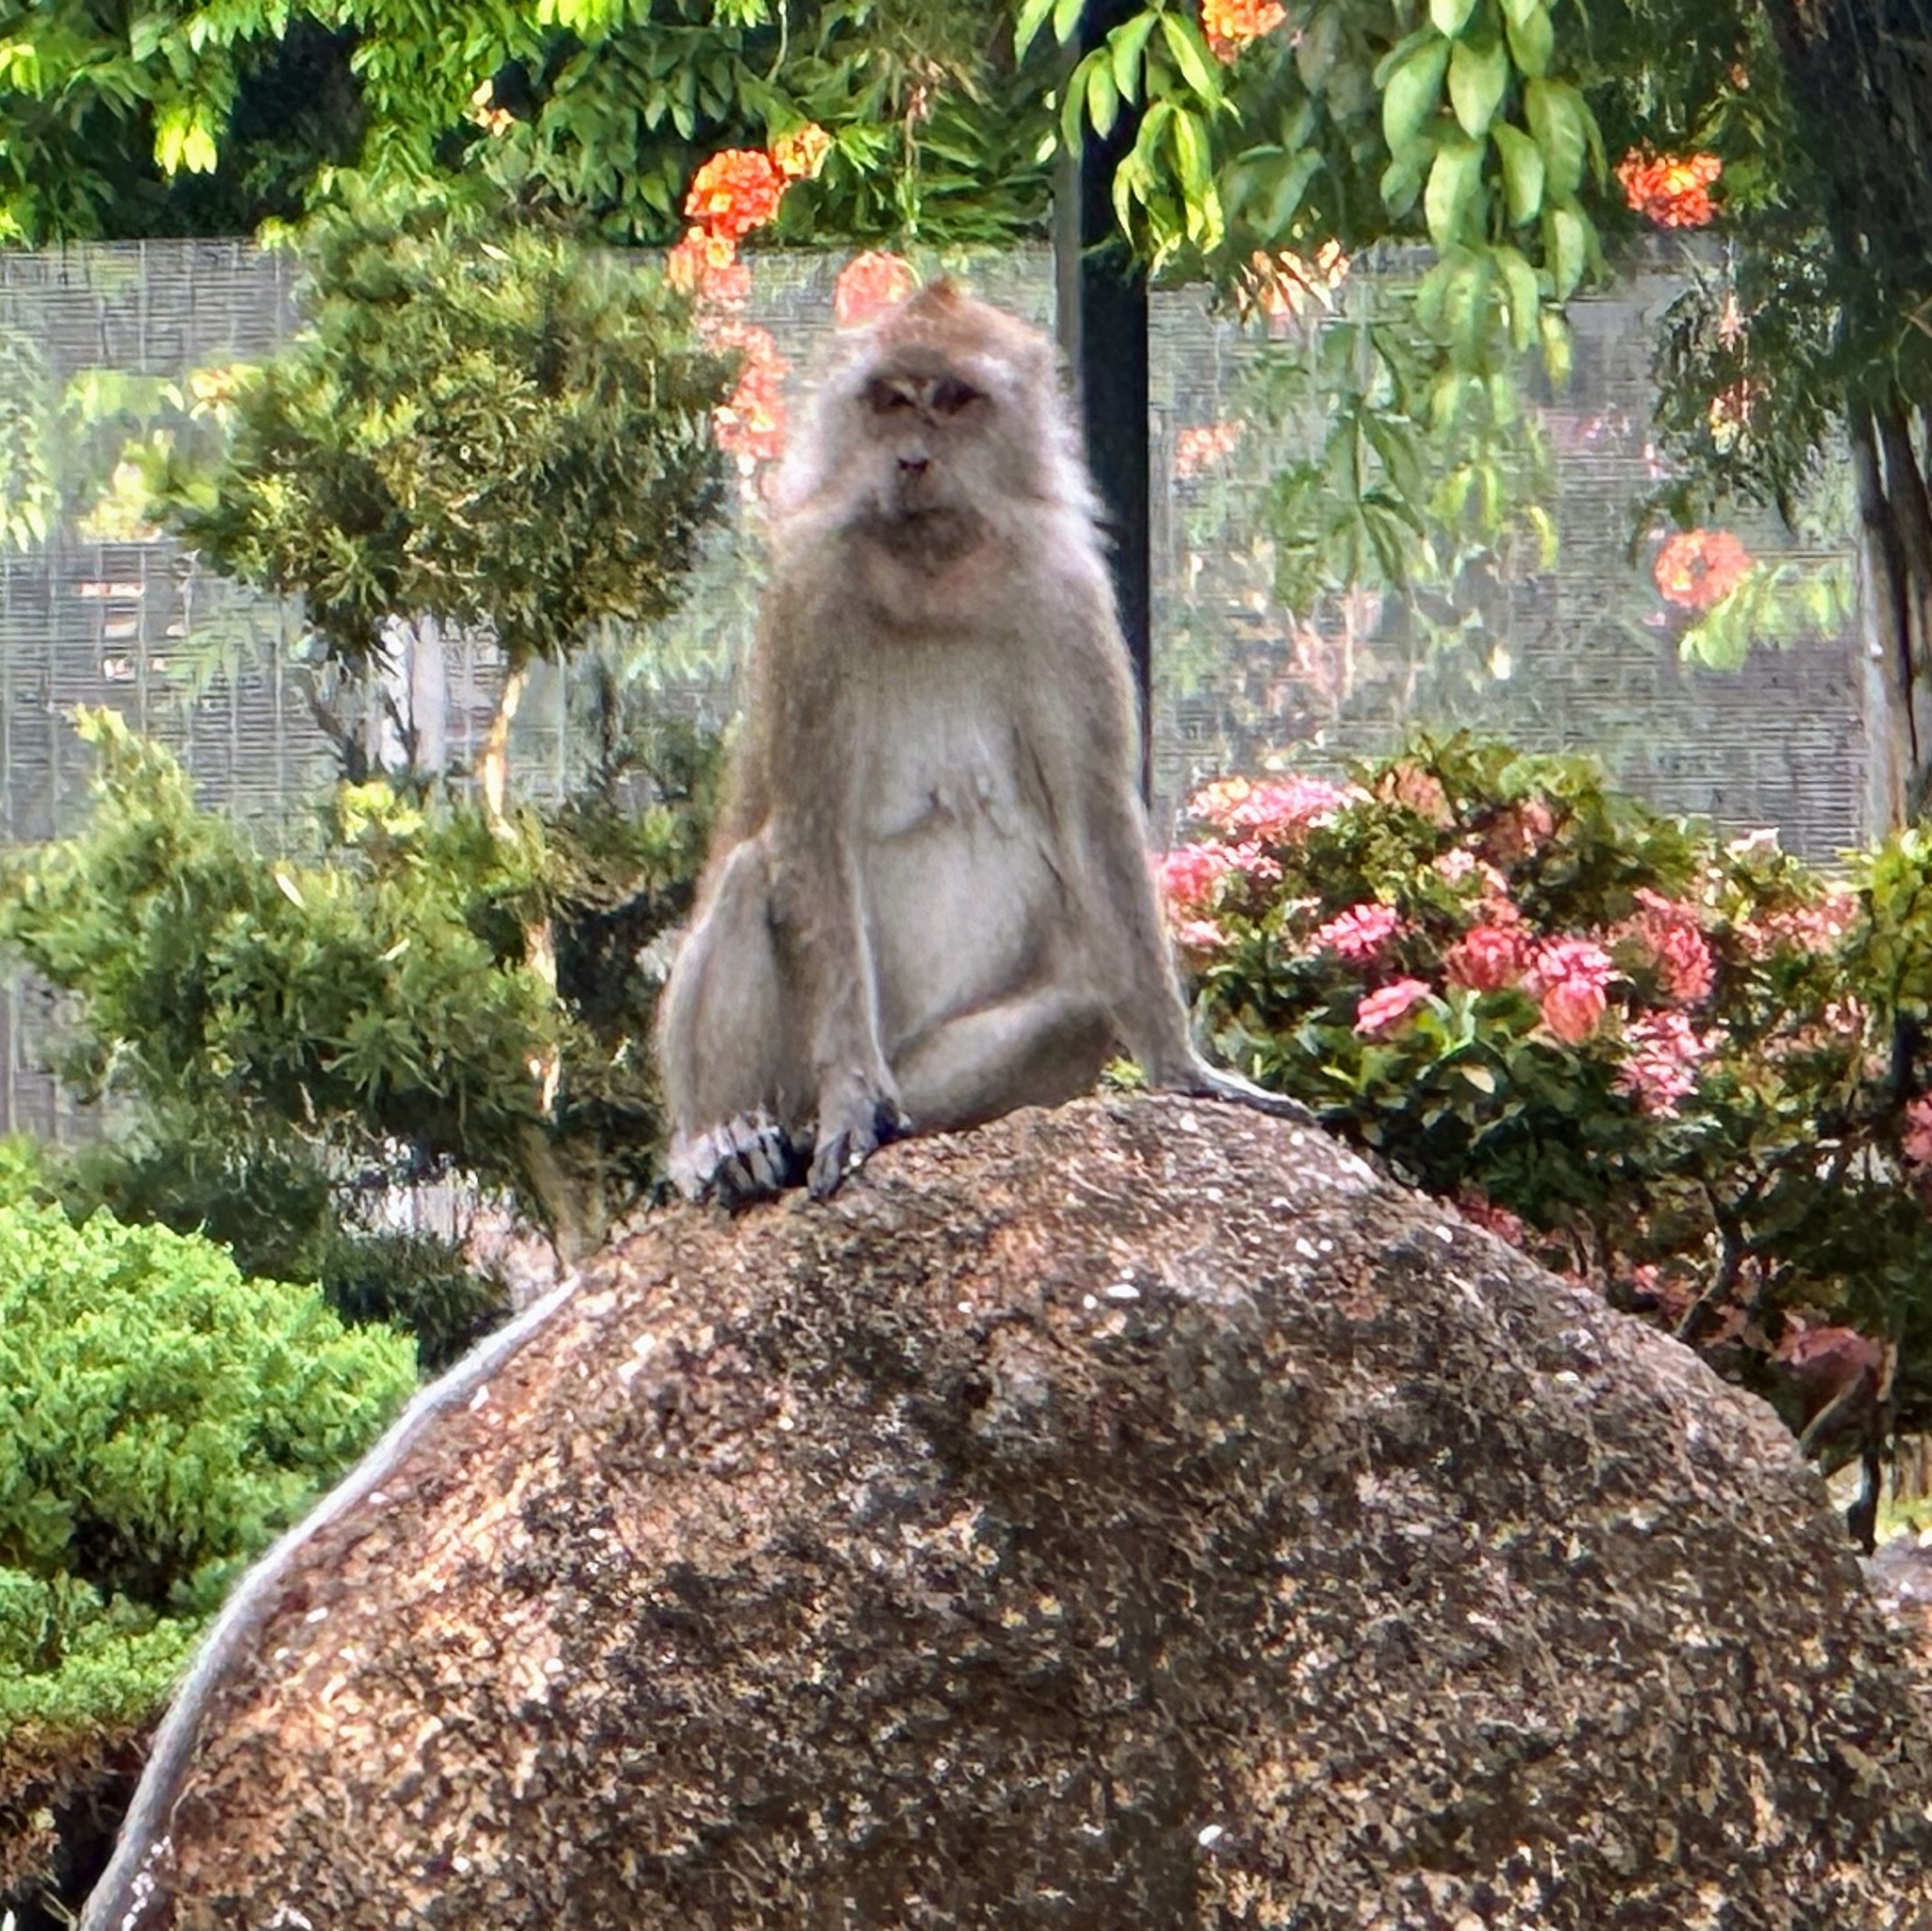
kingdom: Animalia
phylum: Chordata
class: Mammalia
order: Primates
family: Cercopithecidae
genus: Macaca
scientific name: Macaca fascicularis
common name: Crab-eating macaque
